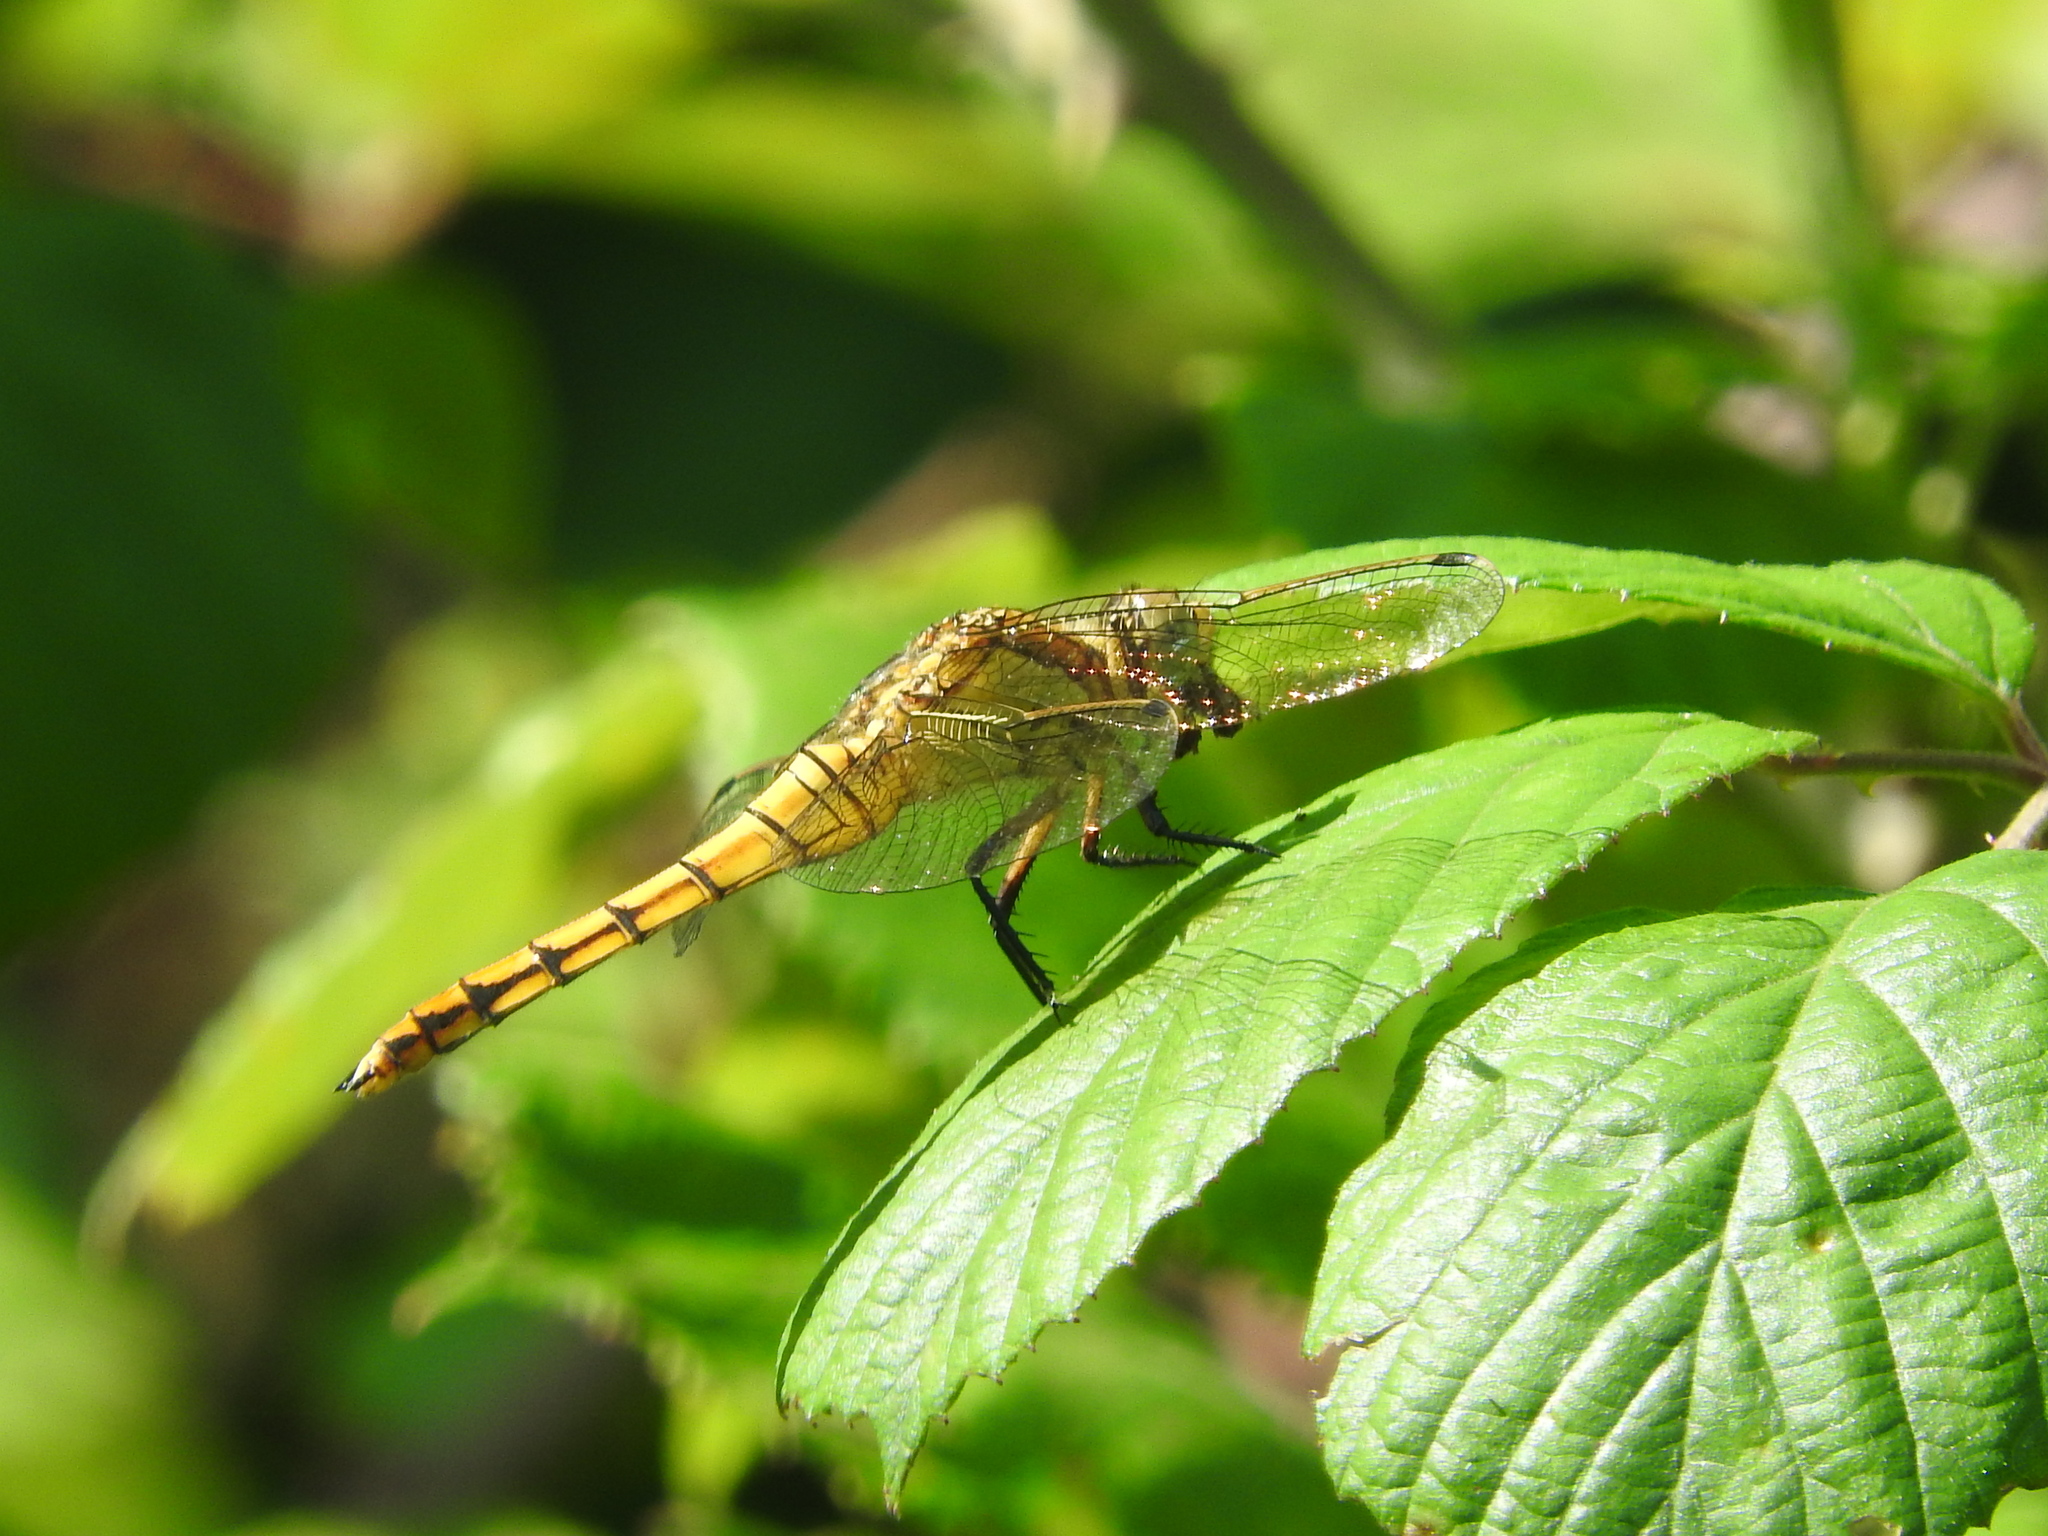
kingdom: Animalia
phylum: Arthropoda
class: Insecta
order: Odonata
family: Libellulidae
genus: Orthetrum
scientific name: Orthetrum cancellatum
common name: Black-tailed skimmer
